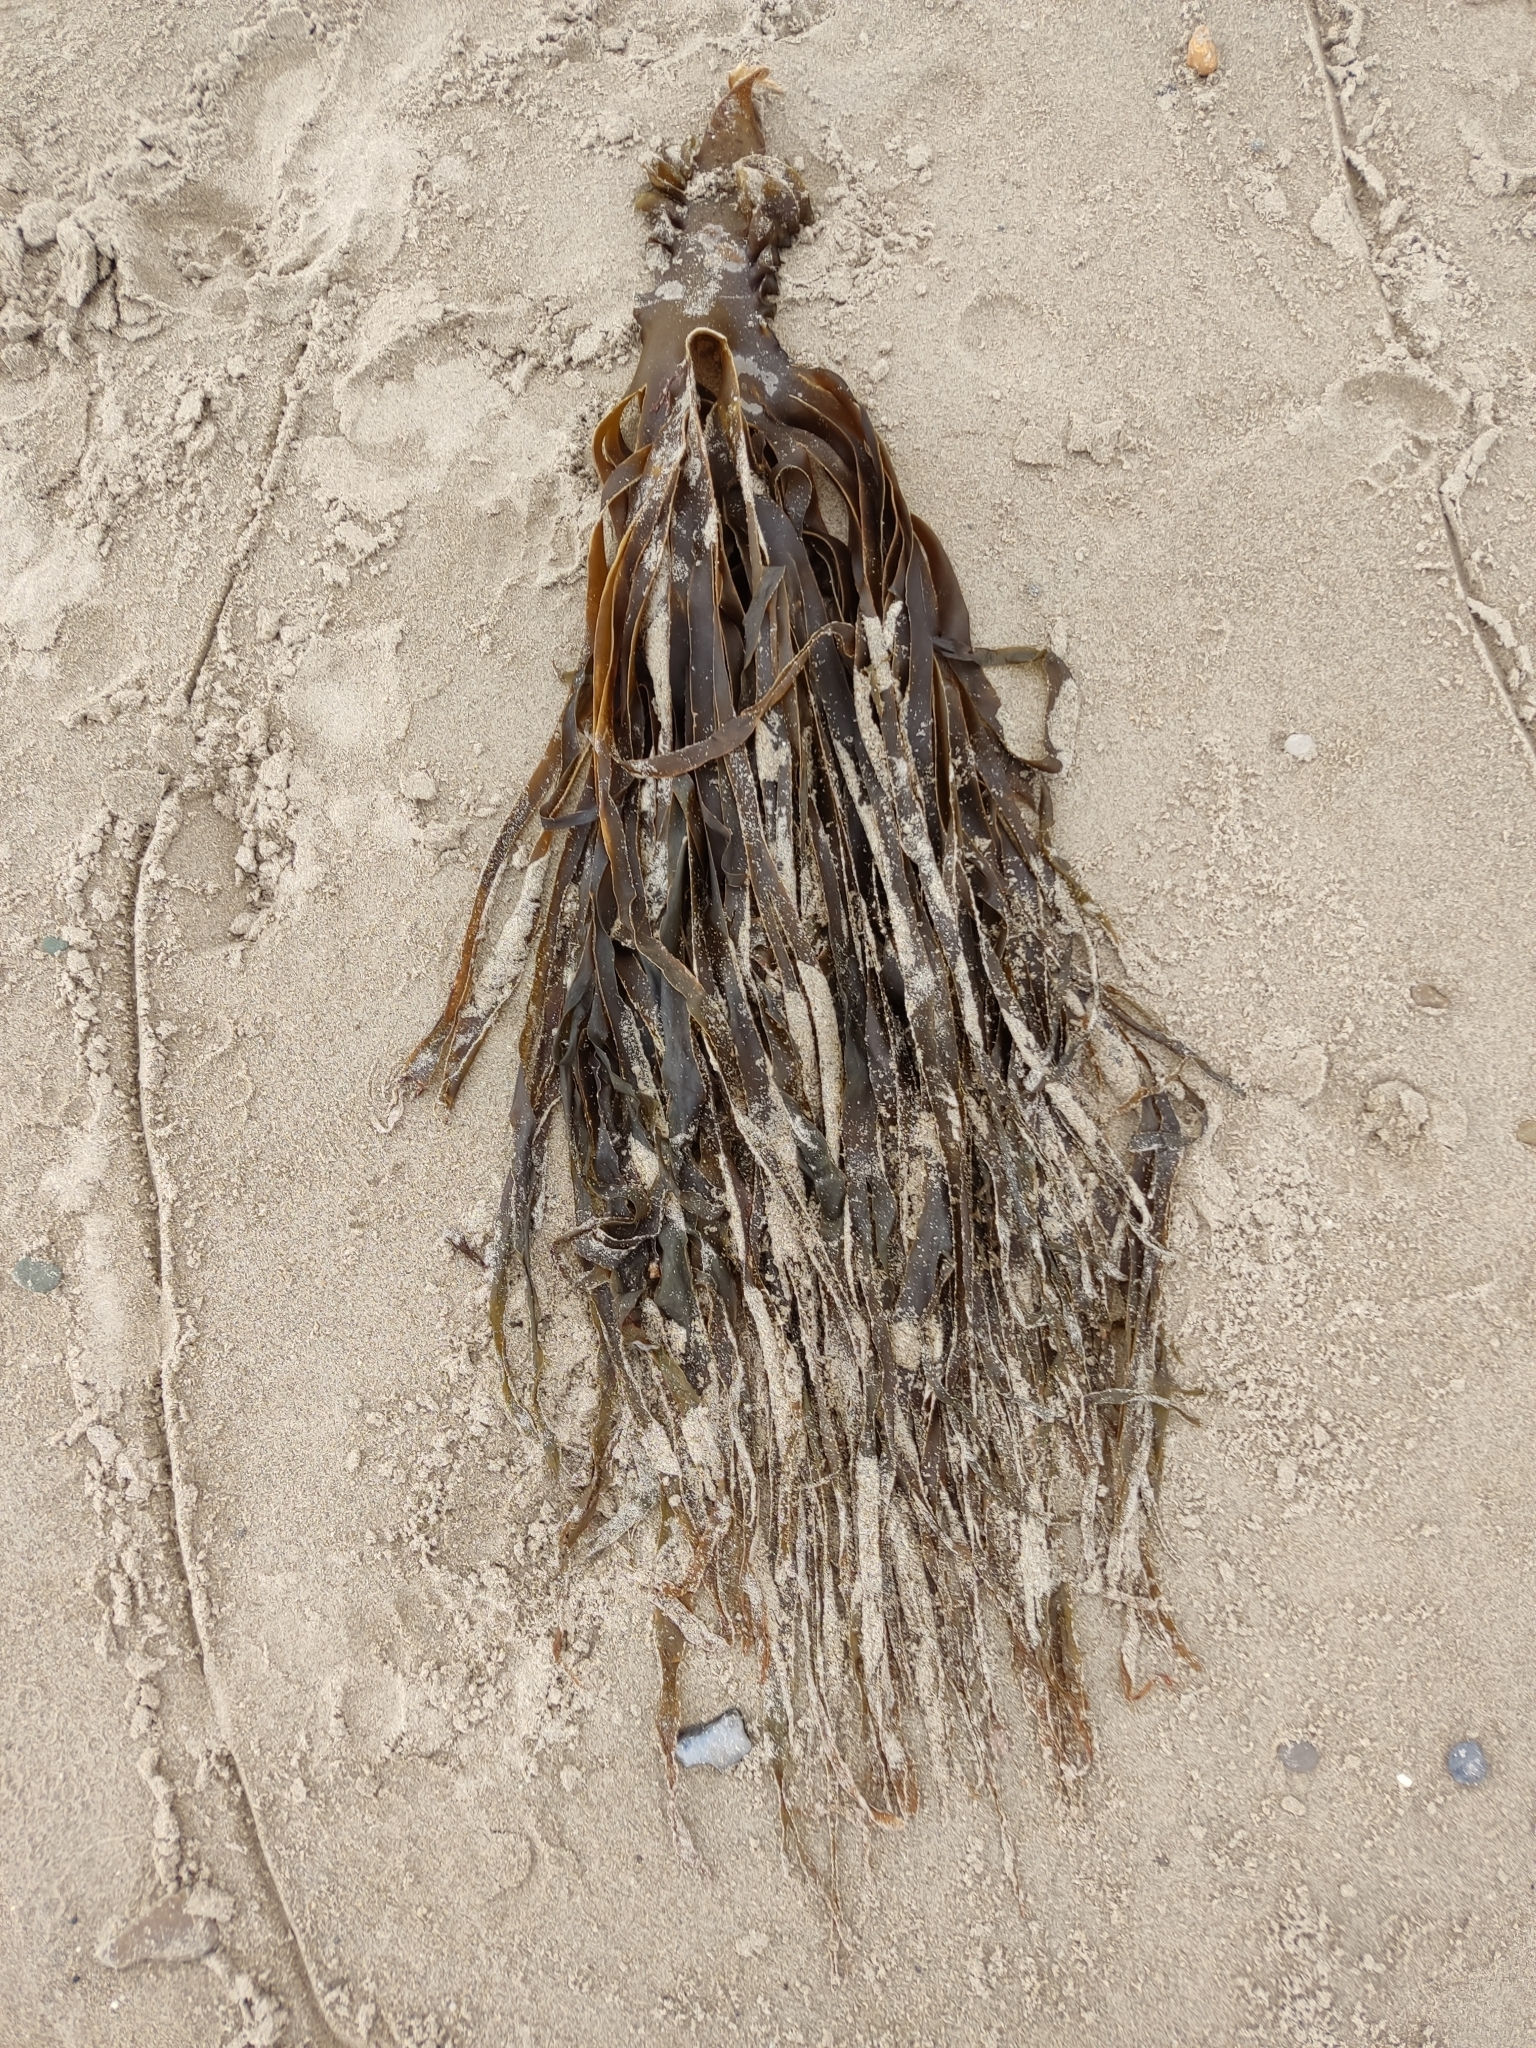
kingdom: Chromista
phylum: Ochrophyta
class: Phaeophyceae
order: Tilopteridales
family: Phyllariaceae
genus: Saccorhiza
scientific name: Saccorhiza polyschides
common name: Furbelows
